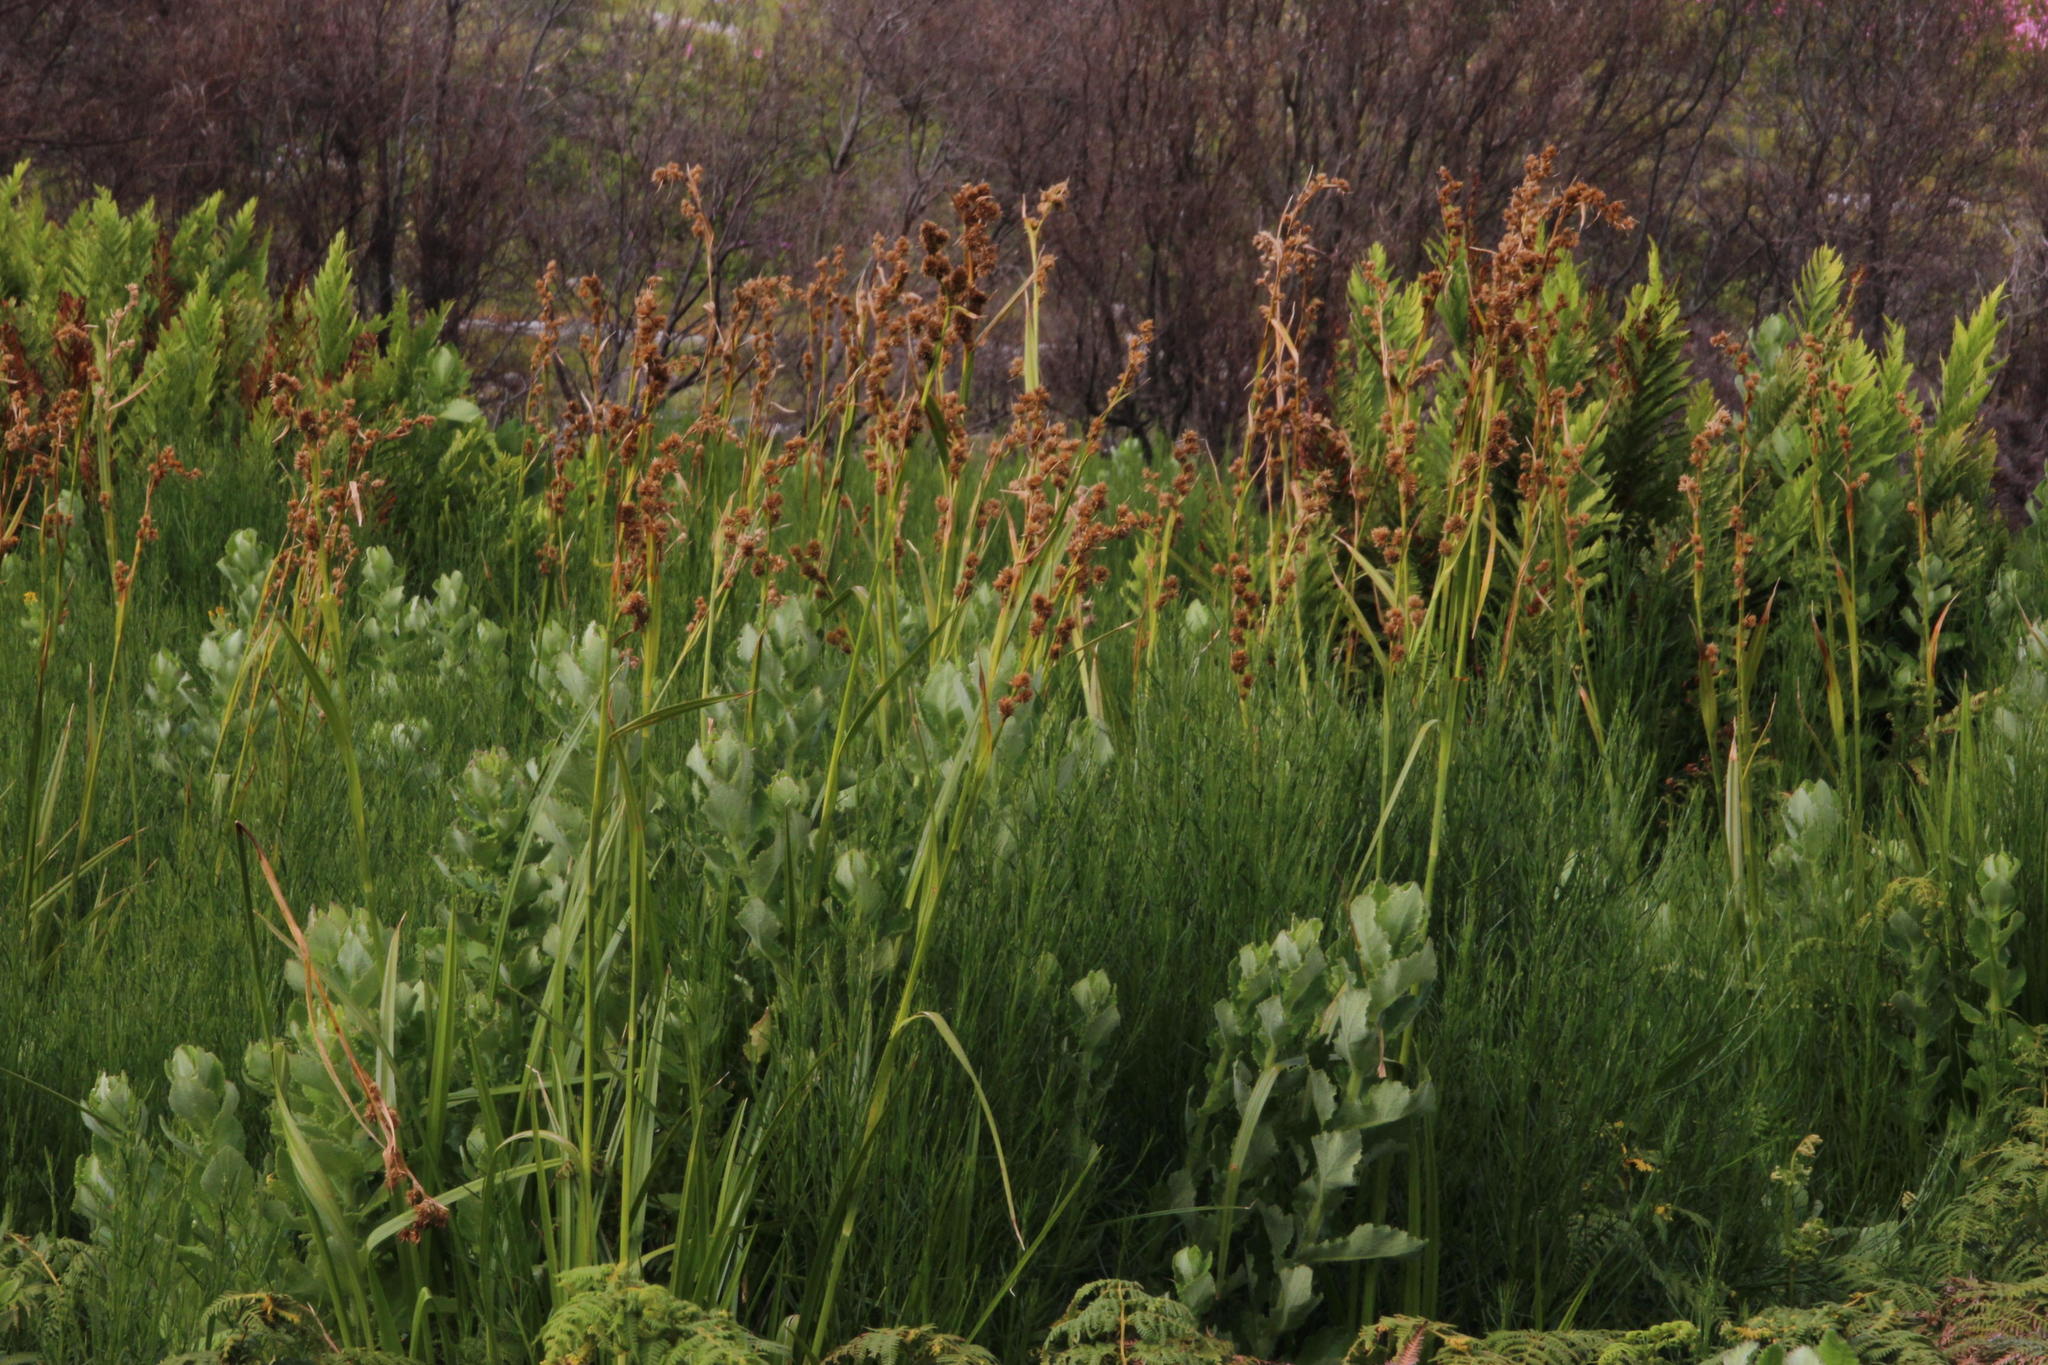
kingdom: Plantae
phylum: Tracheophyta
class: Liliopsida
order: Poales
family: Cyperaceae
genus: Carpha
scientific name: Carpha glomerata
